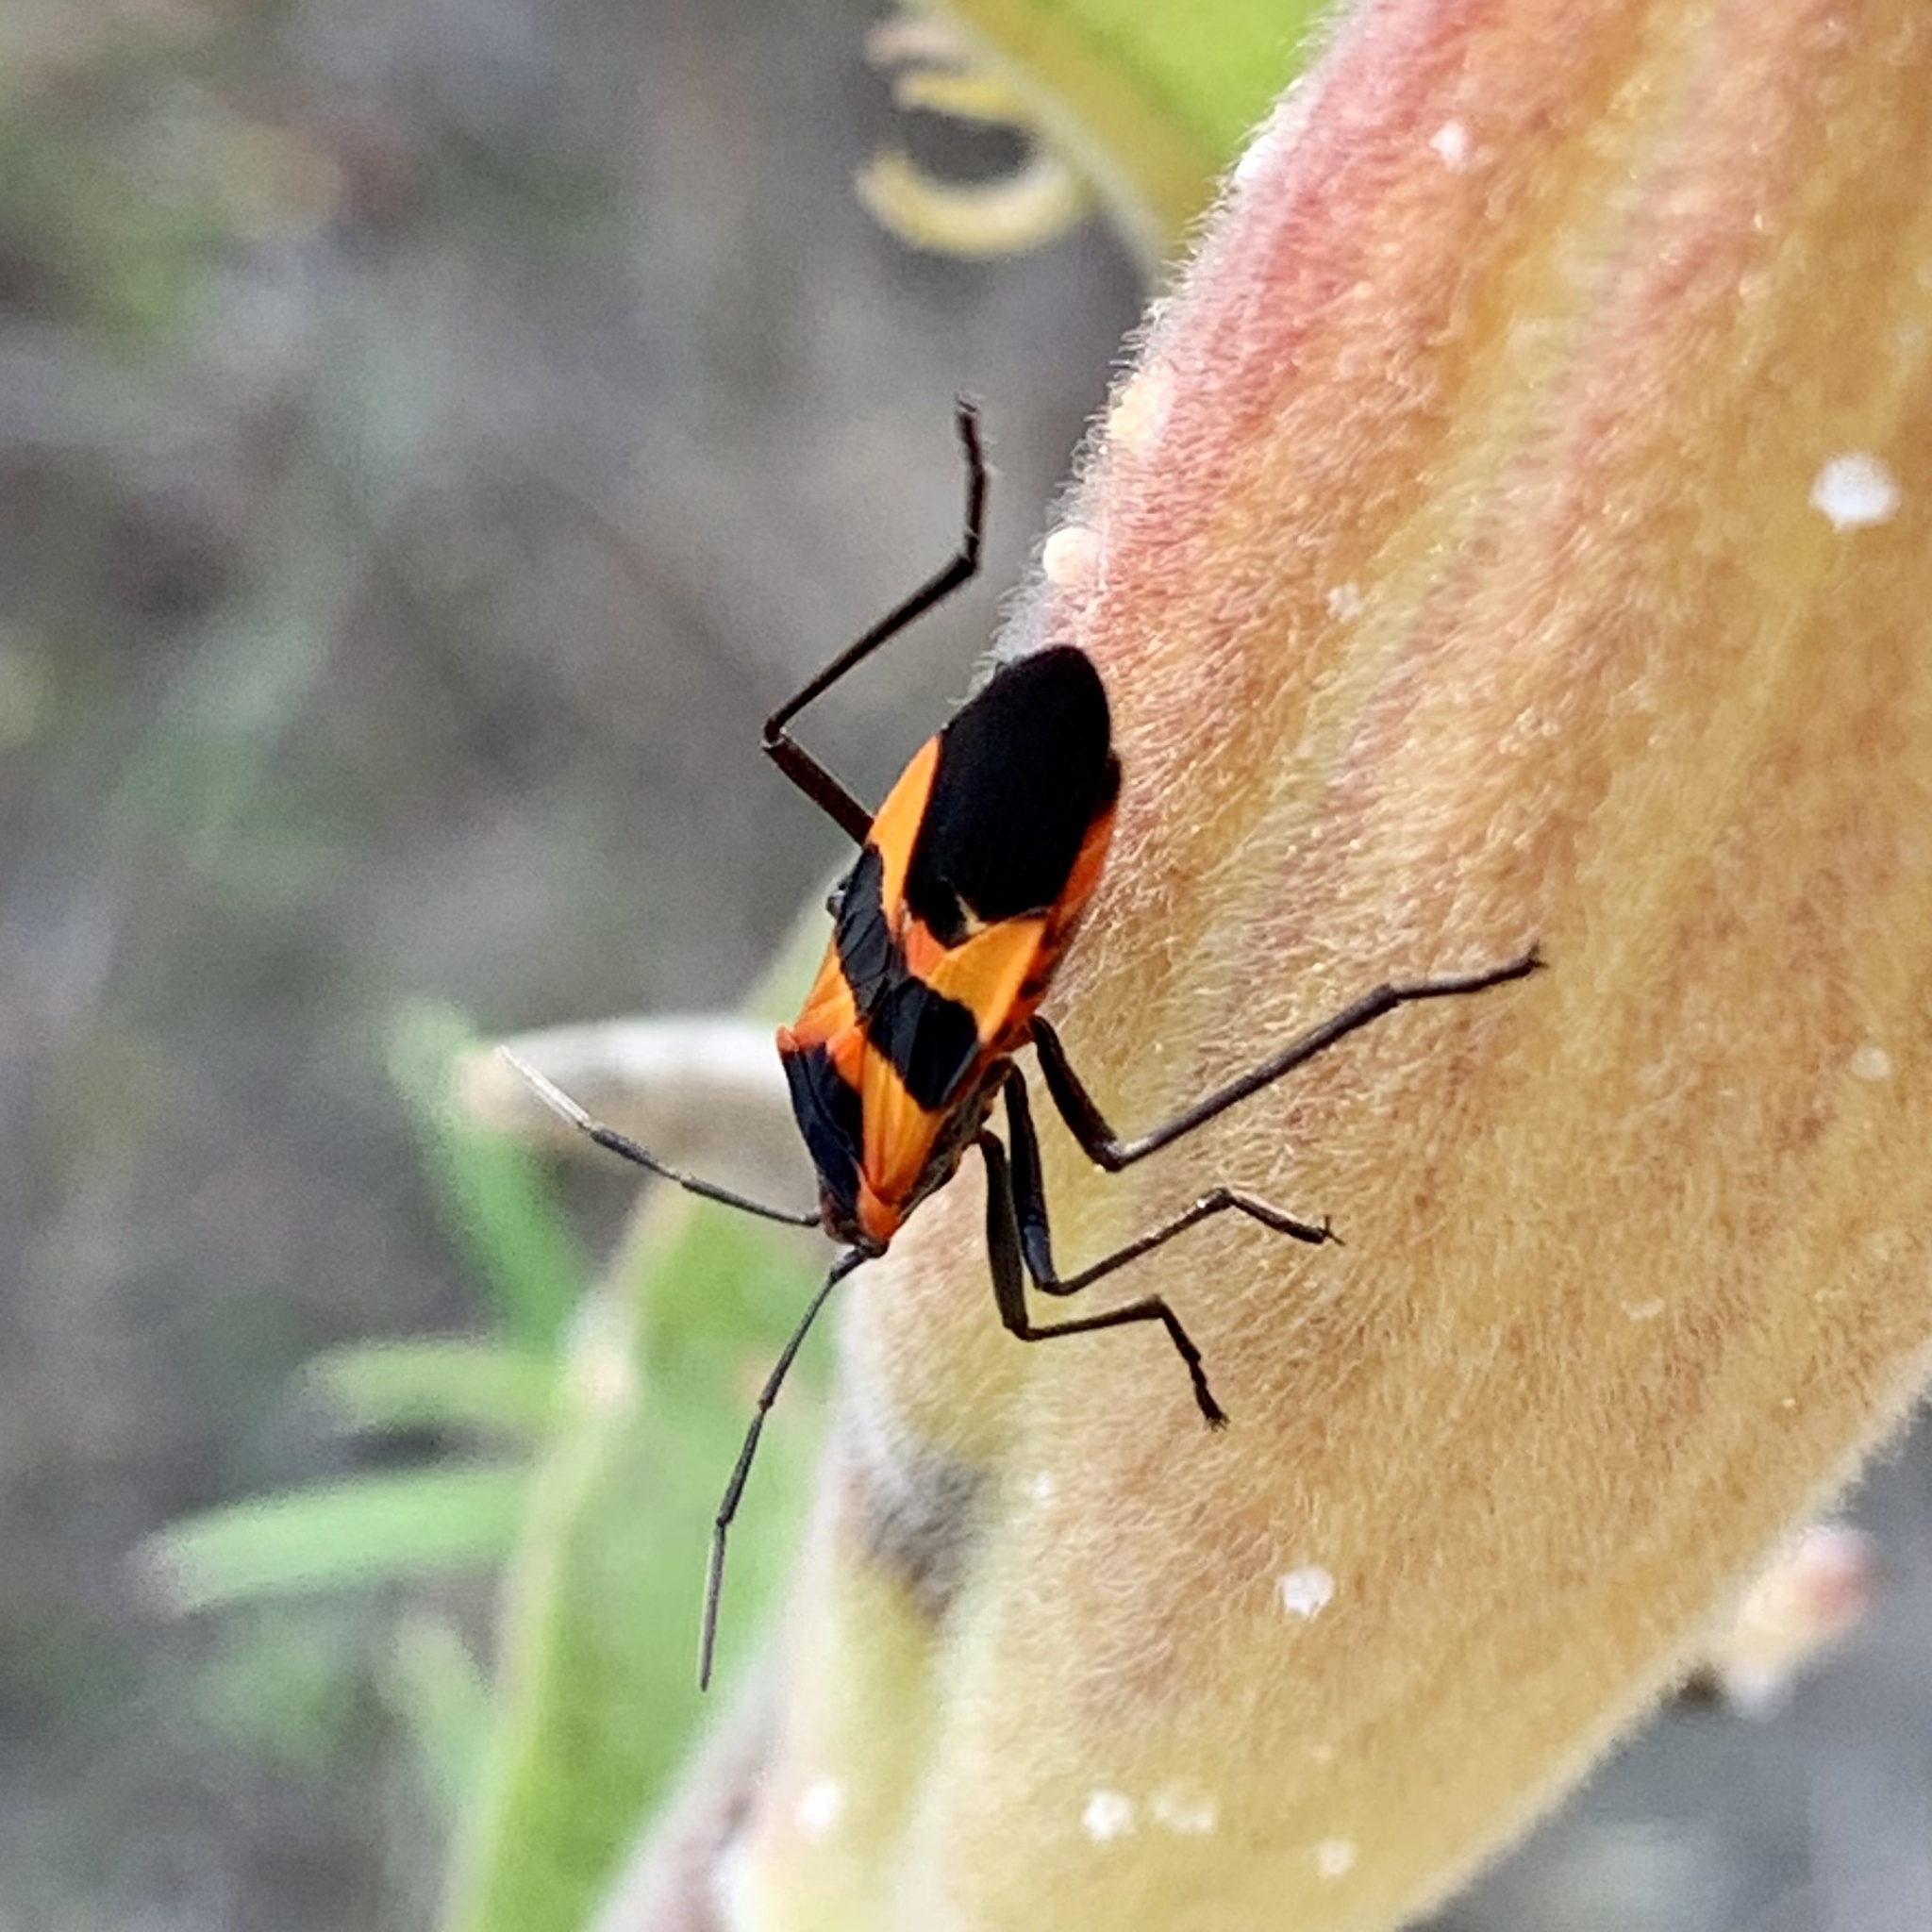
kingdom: Animalia
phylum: Arthropoda
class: Insecta
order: Hemiptera
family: Lygaeidae
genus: Oncopeltus
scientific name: Oncopeltus fasciatus
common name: Large milkweed bug
